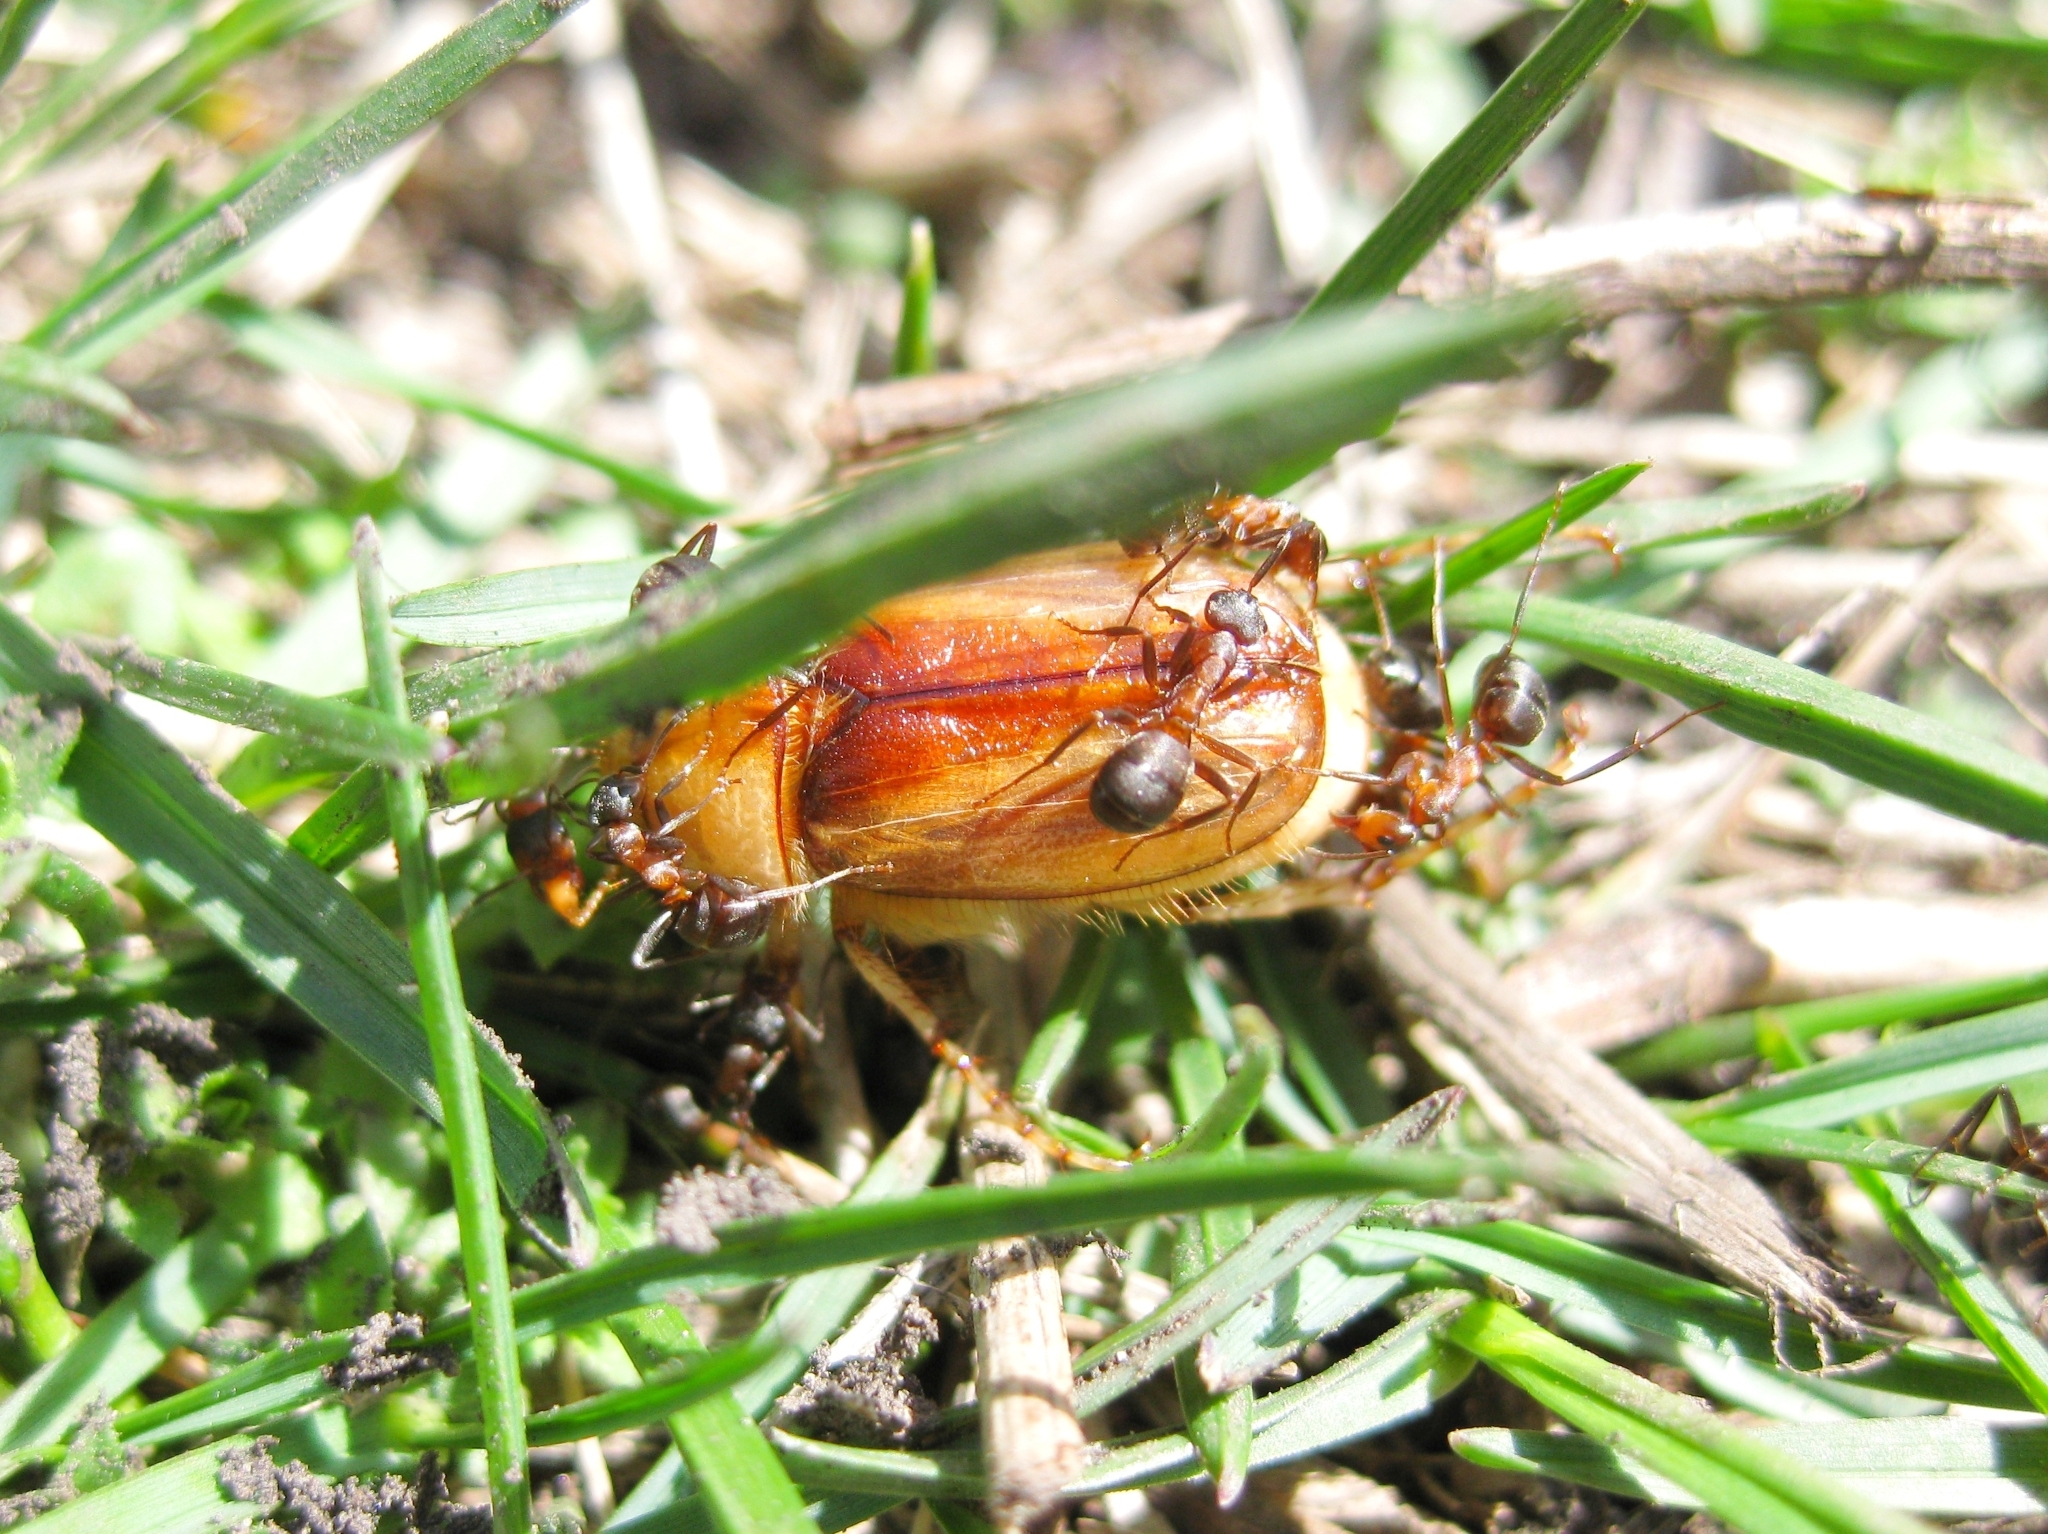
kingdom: Animalia
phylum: Arthropoda
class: Insecta
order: Coleoptera
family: Scarabaeidae
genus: Rhizotrogus
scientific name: Rhizotrogus aestivus
